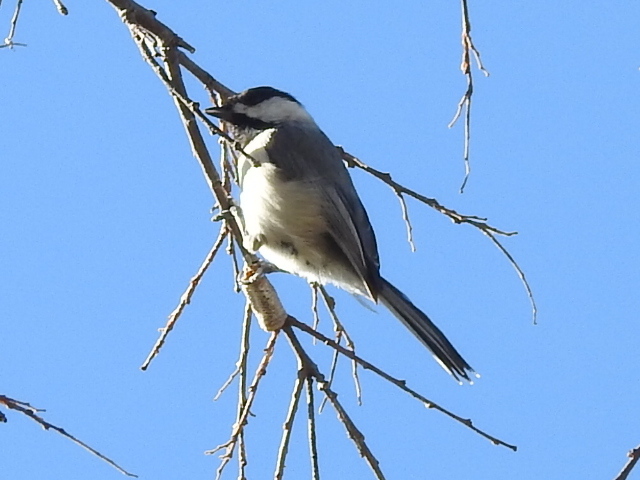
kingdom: Animalia
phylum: Chordata
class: Aves
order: Passeriformes
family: Paridae
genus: Poecile
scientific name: Poecile carolinensis
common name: Carolina chickadee
